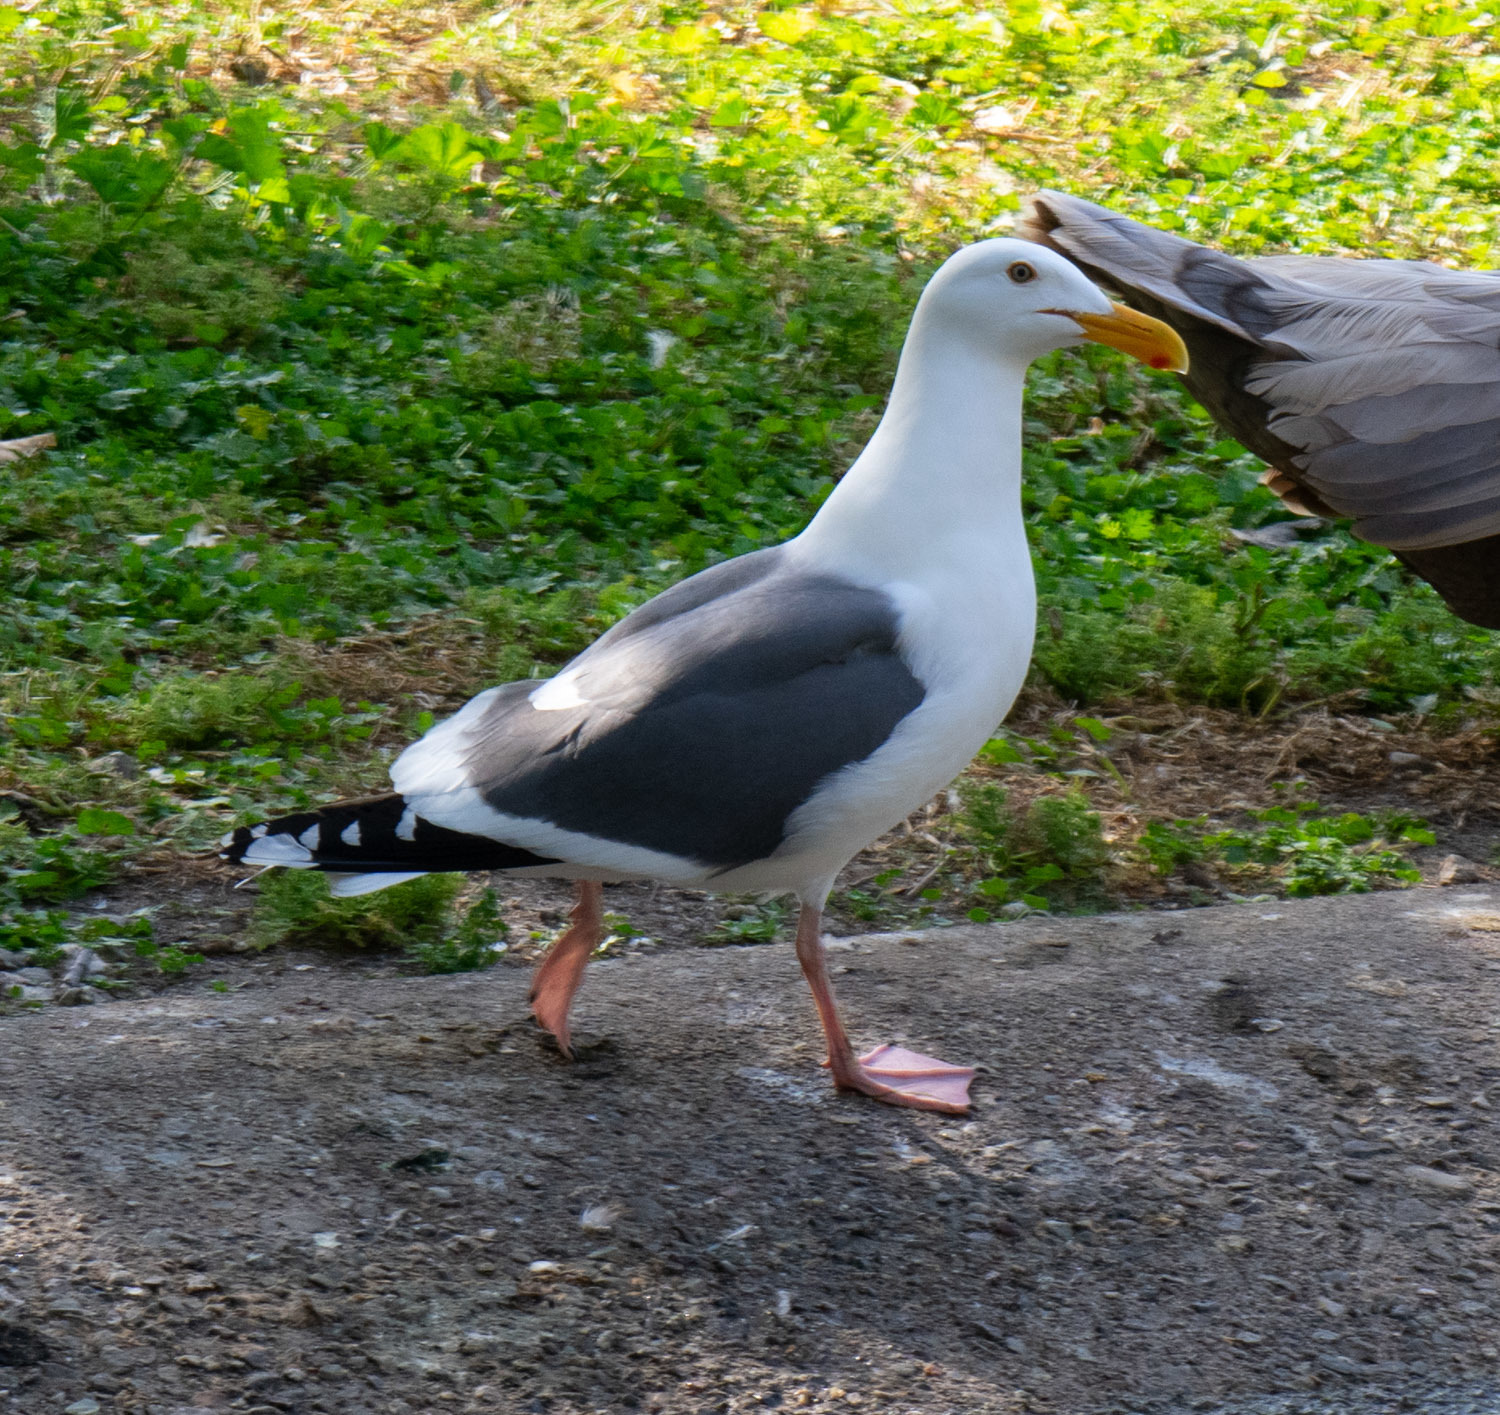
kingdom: Animalia
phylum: Chordata
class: Aves
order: Charadriiformes
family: Laridae
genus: Larus
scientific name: Larus occidentalis
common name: Western gull
